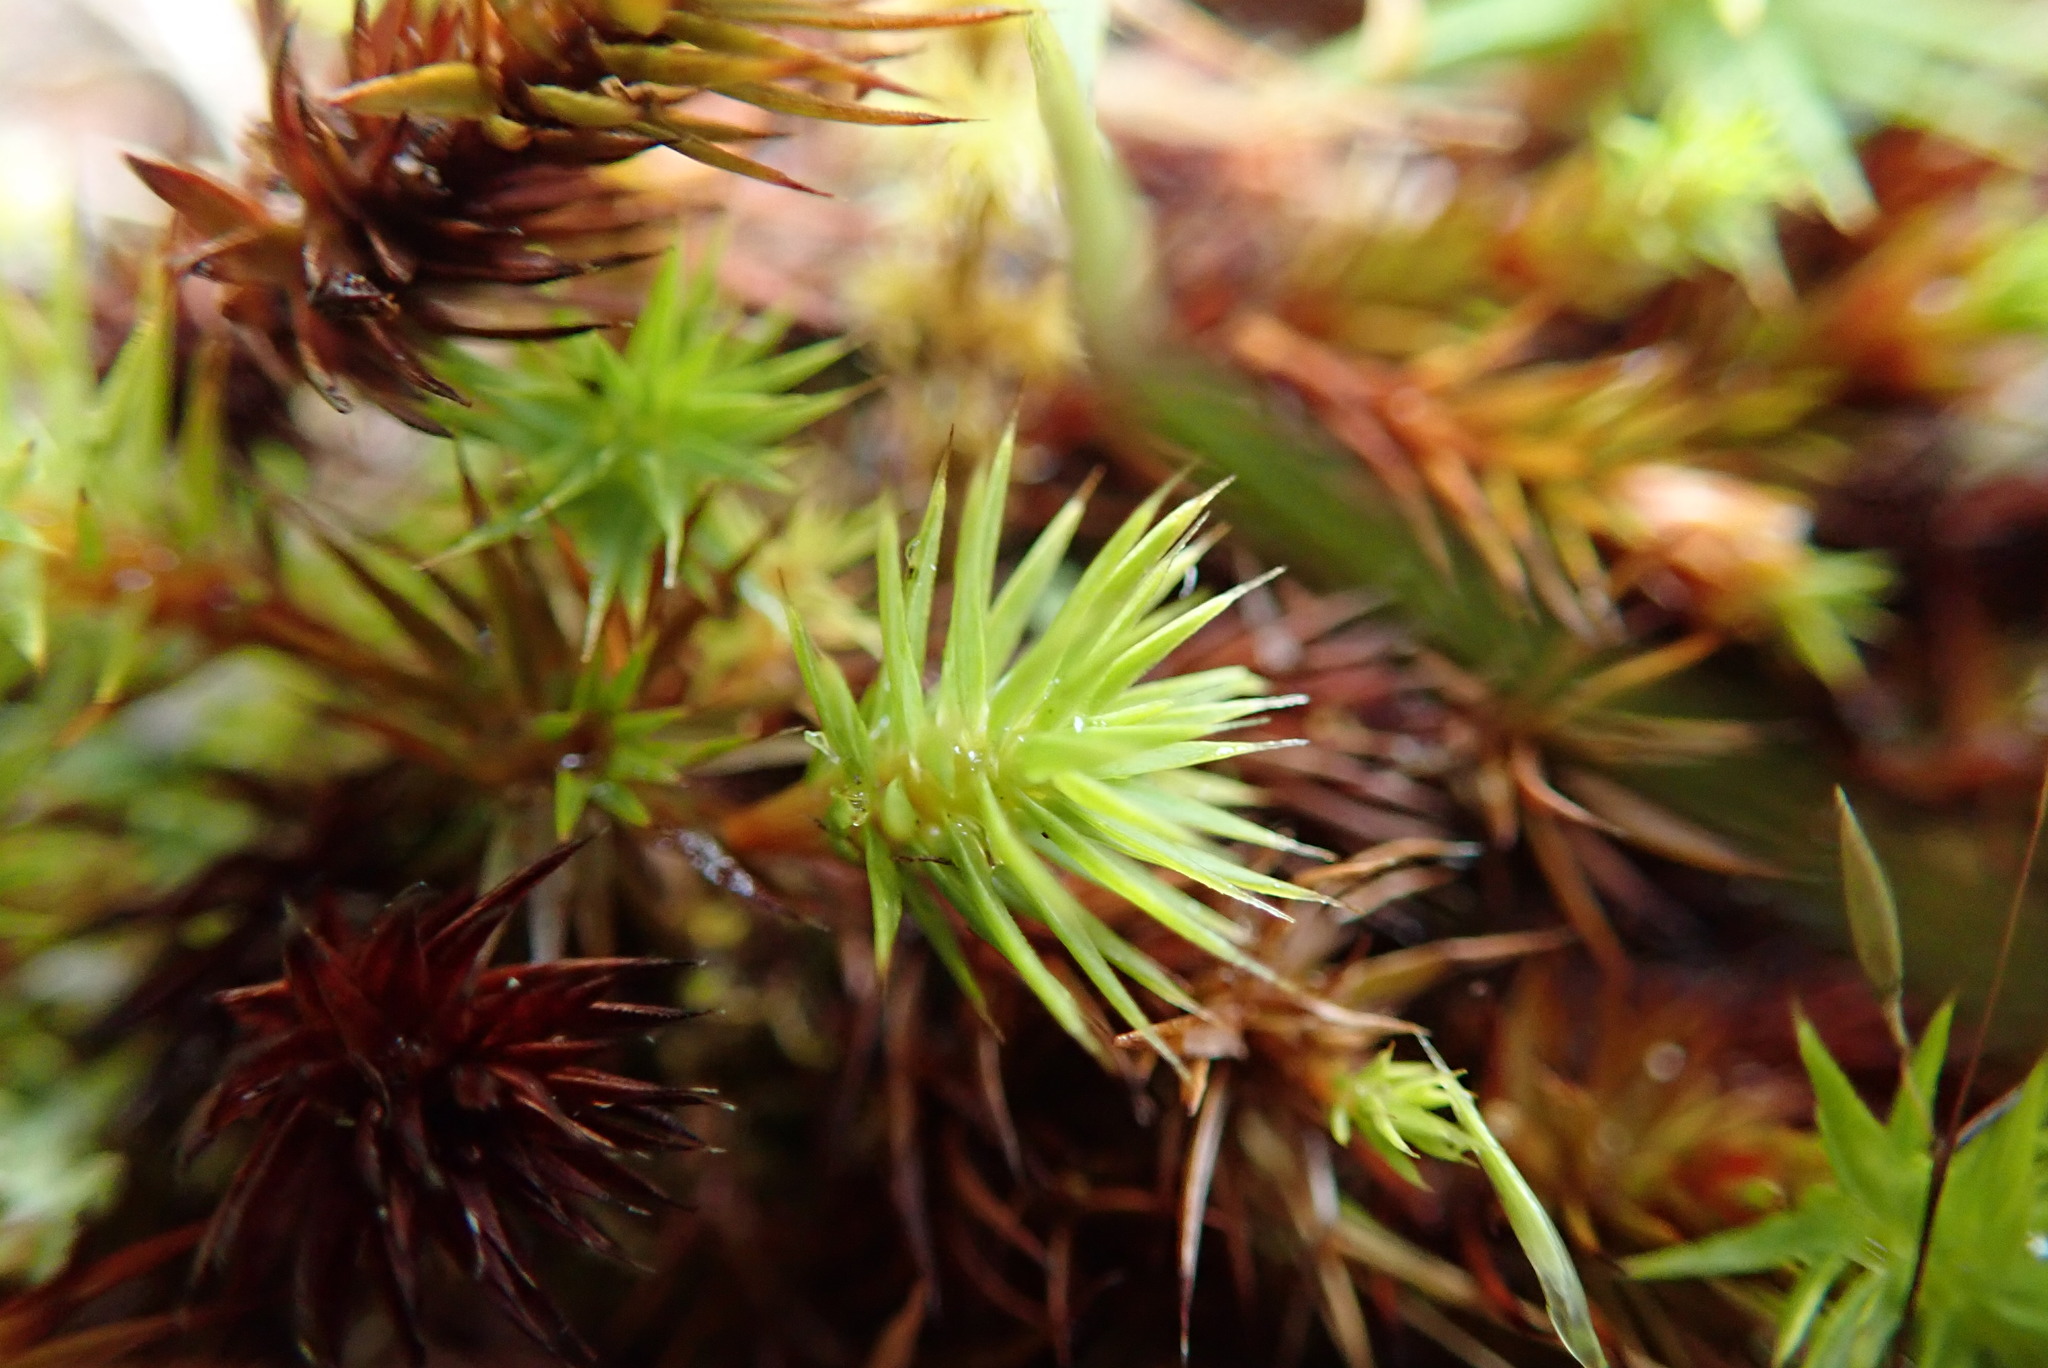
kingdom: Plantae
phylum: Bryophyta
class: Polytrichopsida
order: Polytrichales
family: Polytrichaceae
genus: Polytrichum
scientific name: Polytrichum commune
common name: Common haircap
